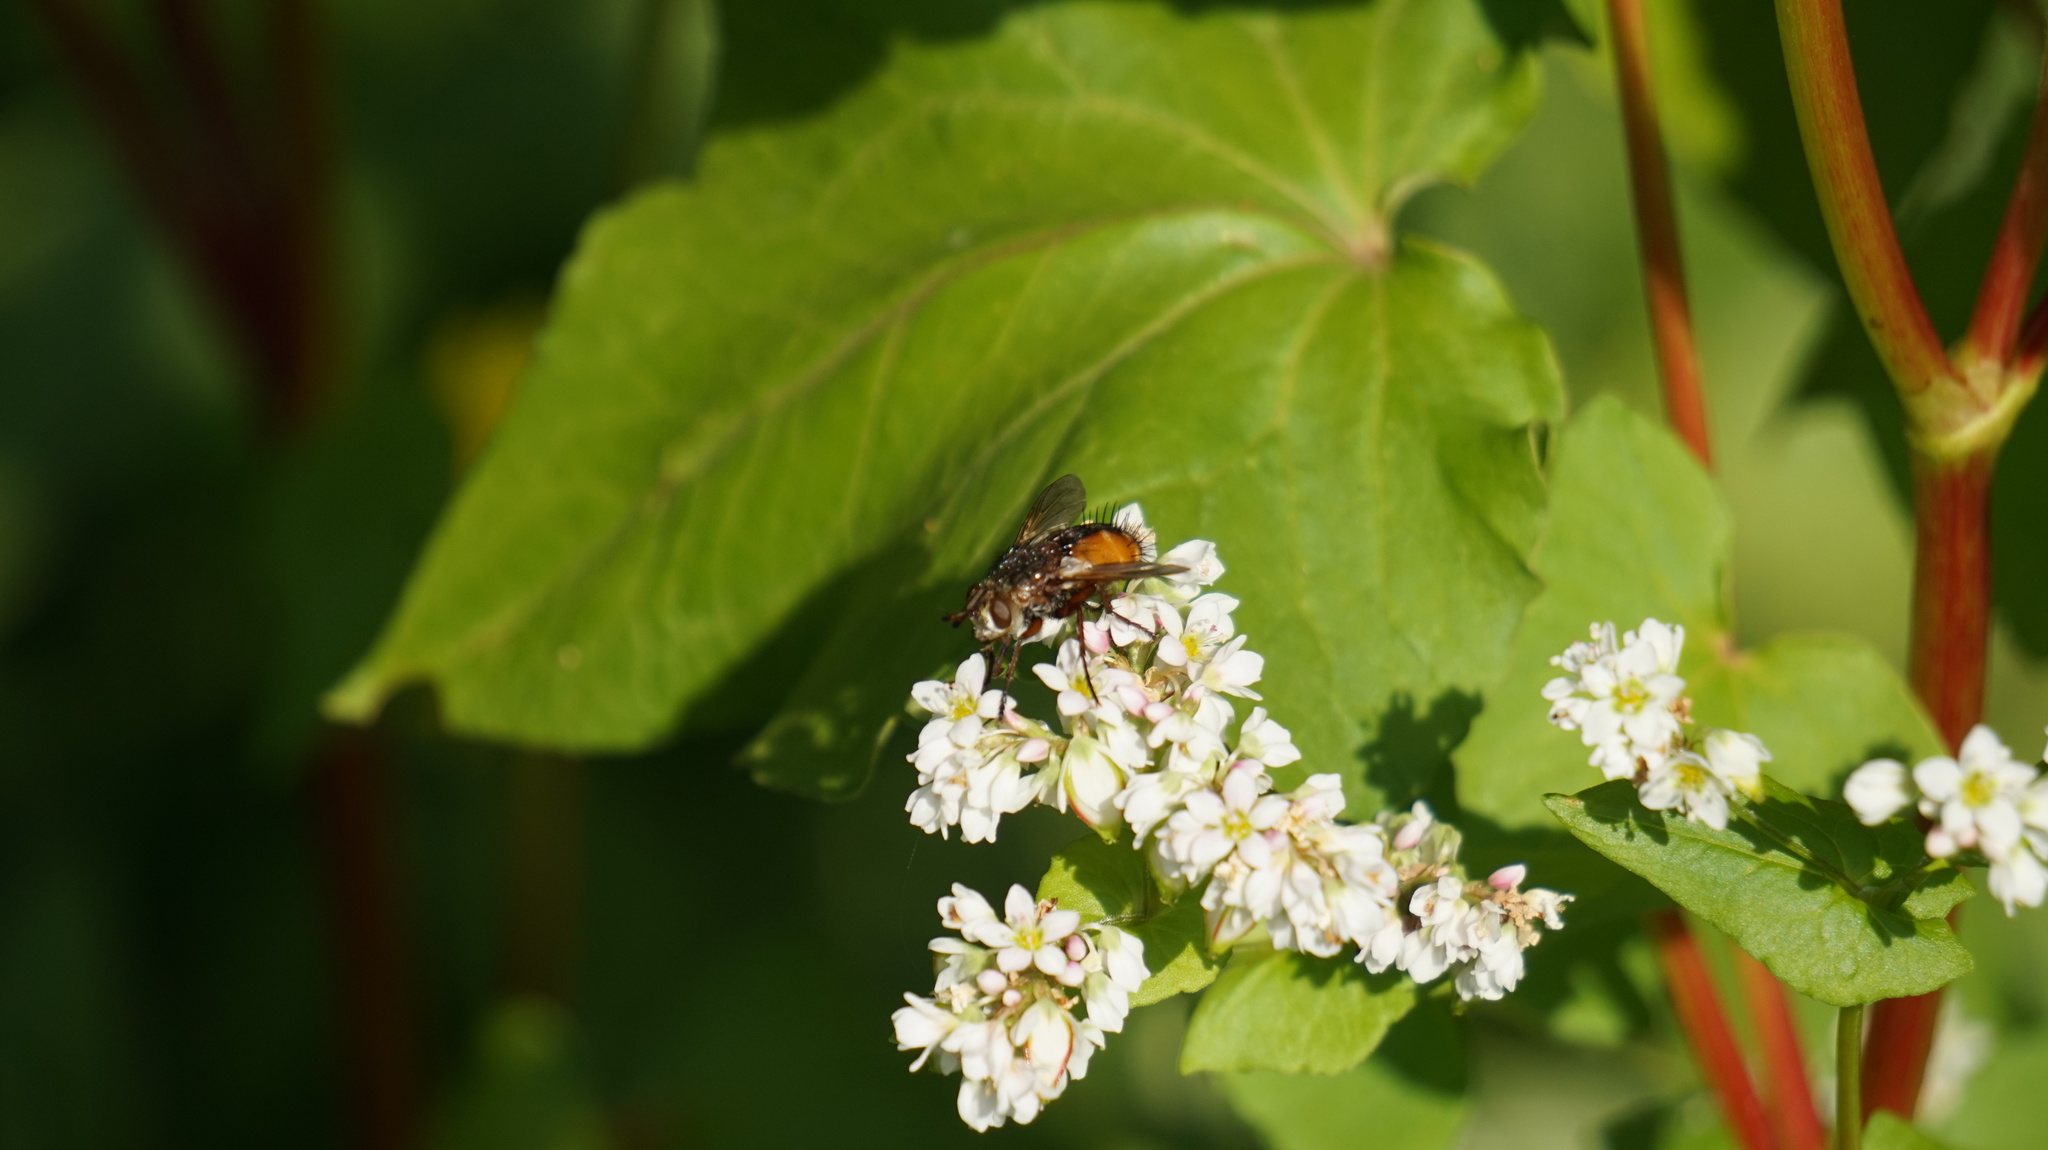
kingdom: Animalia
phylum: Arthropoda
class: Insecta
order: Diptera
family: Tachinidae
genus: Tachina
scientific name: Tachina fera
